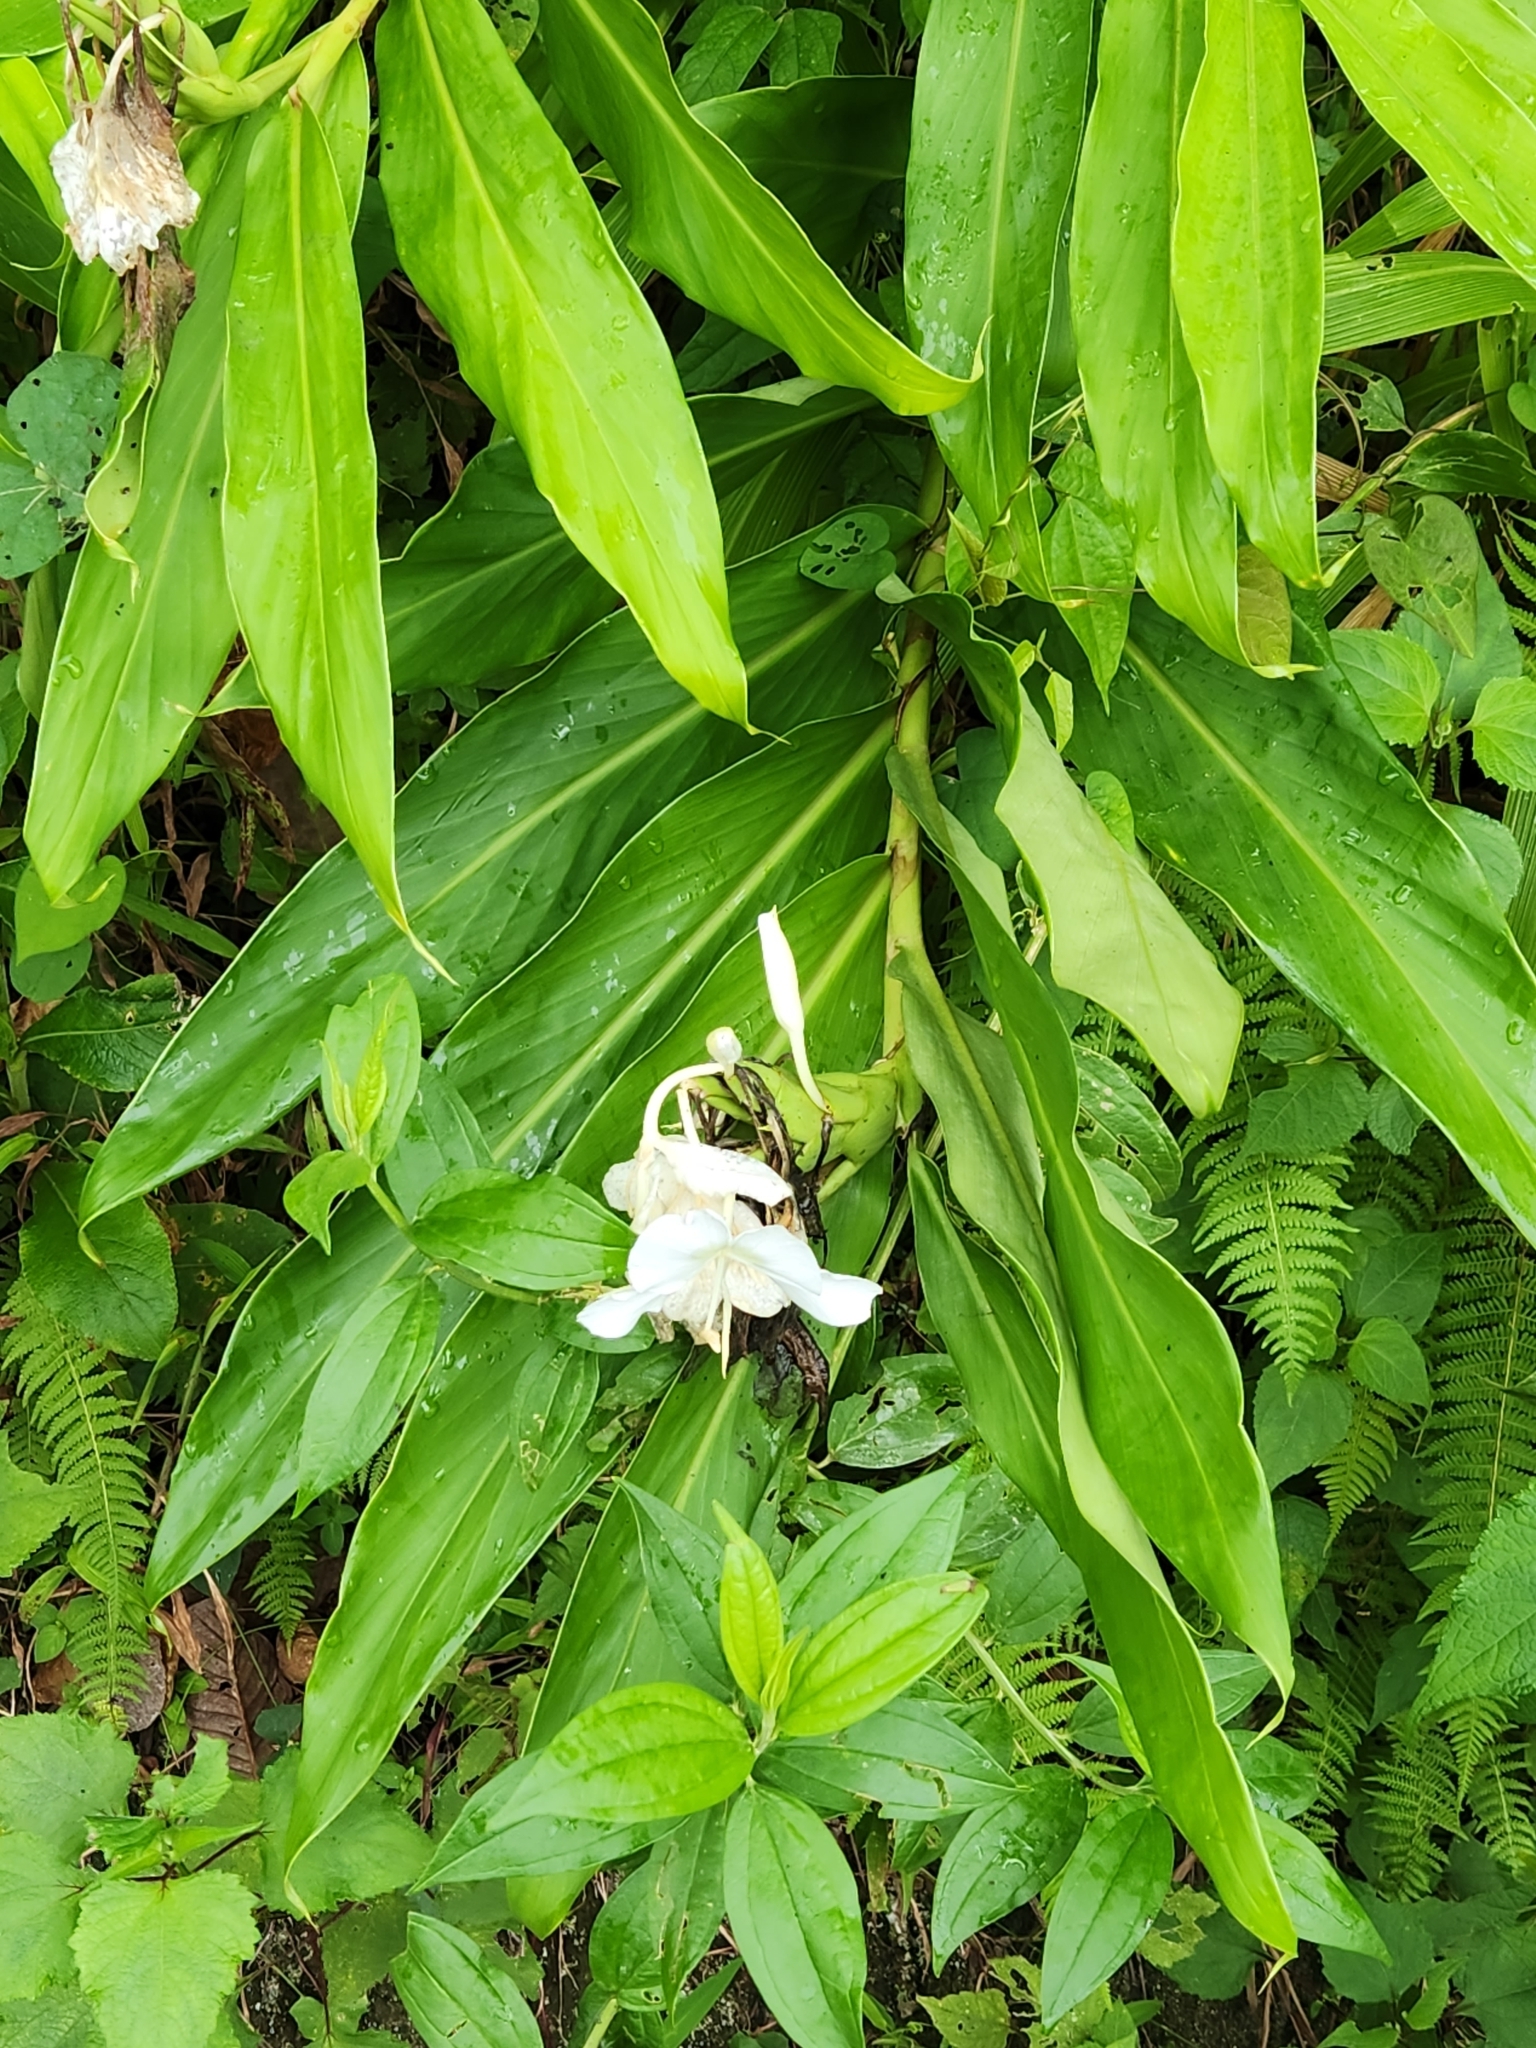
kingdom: Plantae
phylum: Tracheophyta
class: Liliopsida
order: Zingiberales
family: Zingiberaceae
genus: Hedychium
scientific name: Hedychium coronarium
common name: White garland-lily
